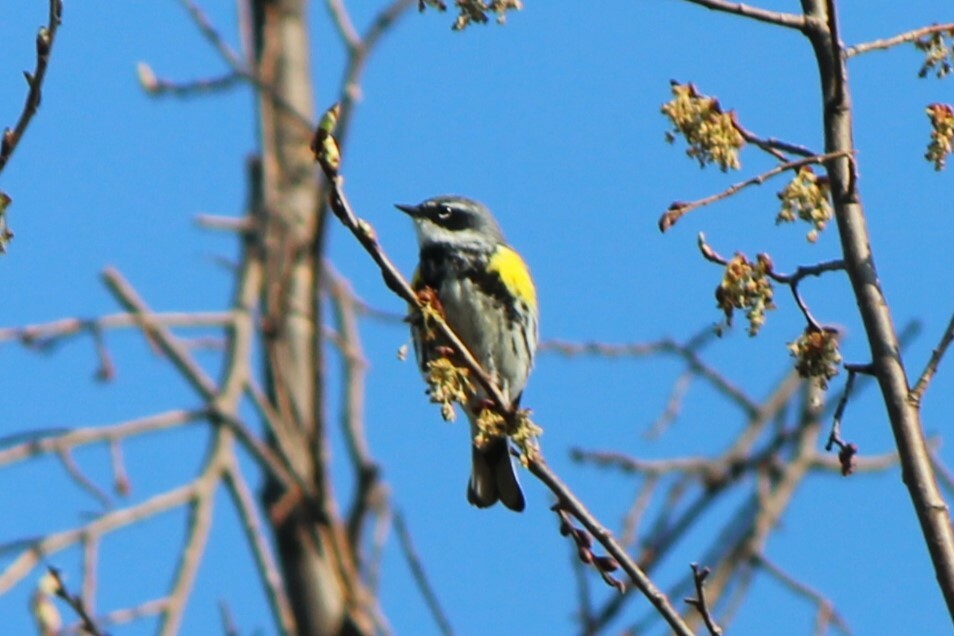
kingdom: Animalia
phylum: Chordata
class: Aves
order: Passeriformes
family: Parulidae
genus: Setophaga
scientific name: Setophaga coronata
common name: Myrtle warbler
